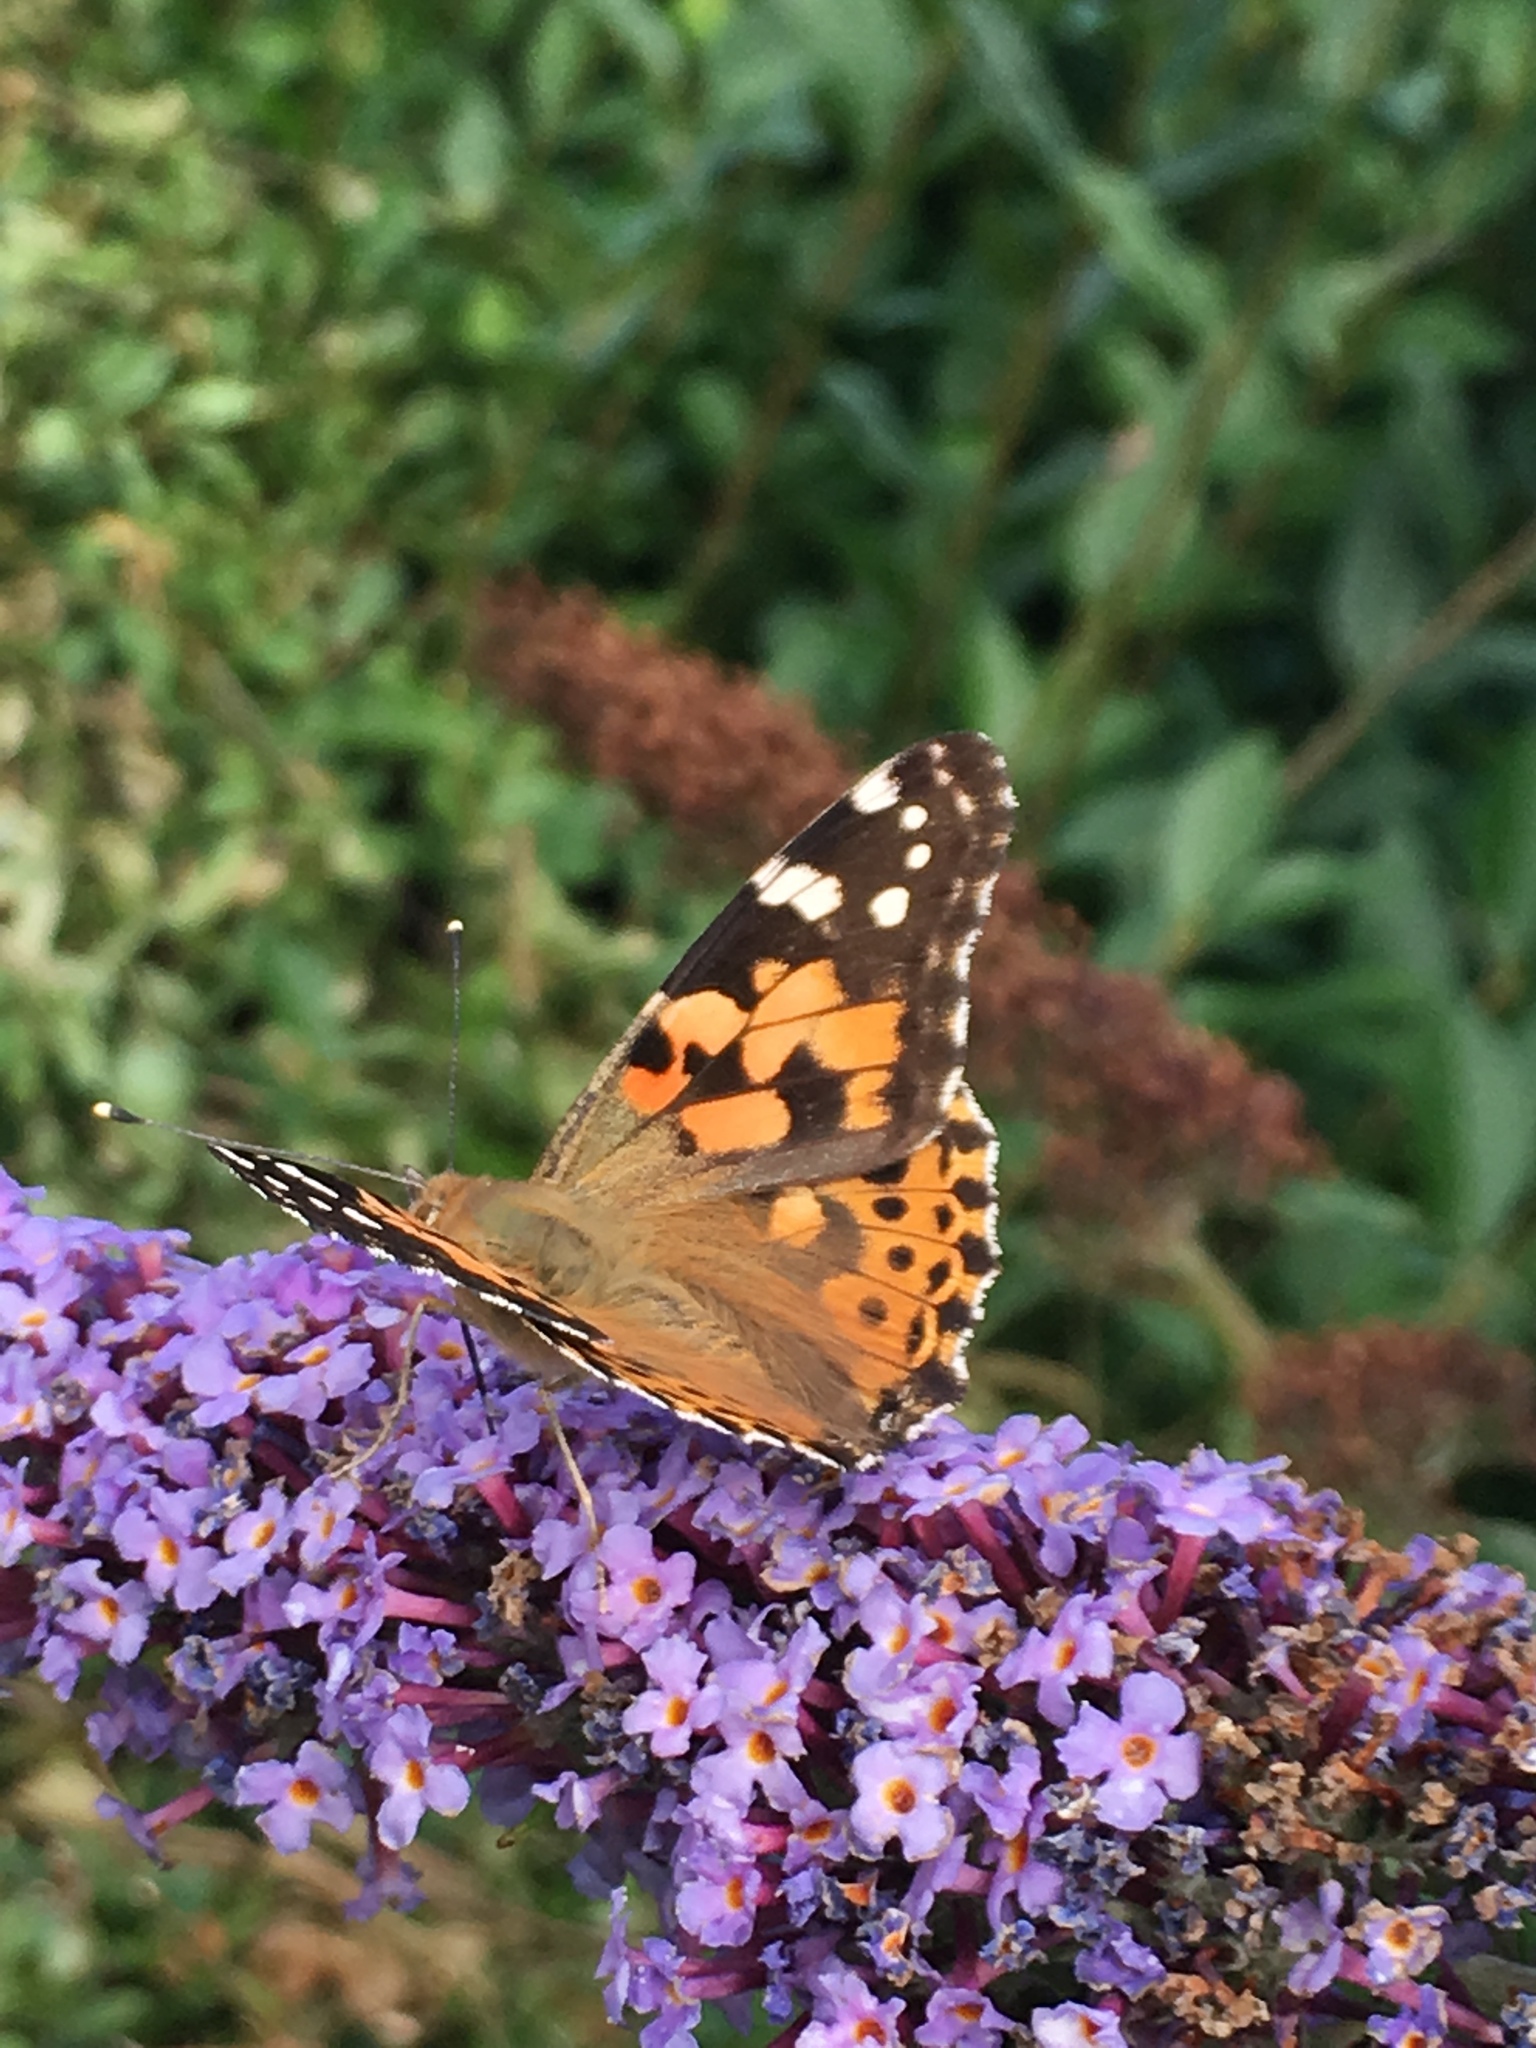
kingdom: Animalia
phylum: Arthropoda
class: Insecta
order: Lepidoptera
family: Nymphalidae
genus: Vanessa
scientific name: Vanessa cardui
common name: Painted lady
